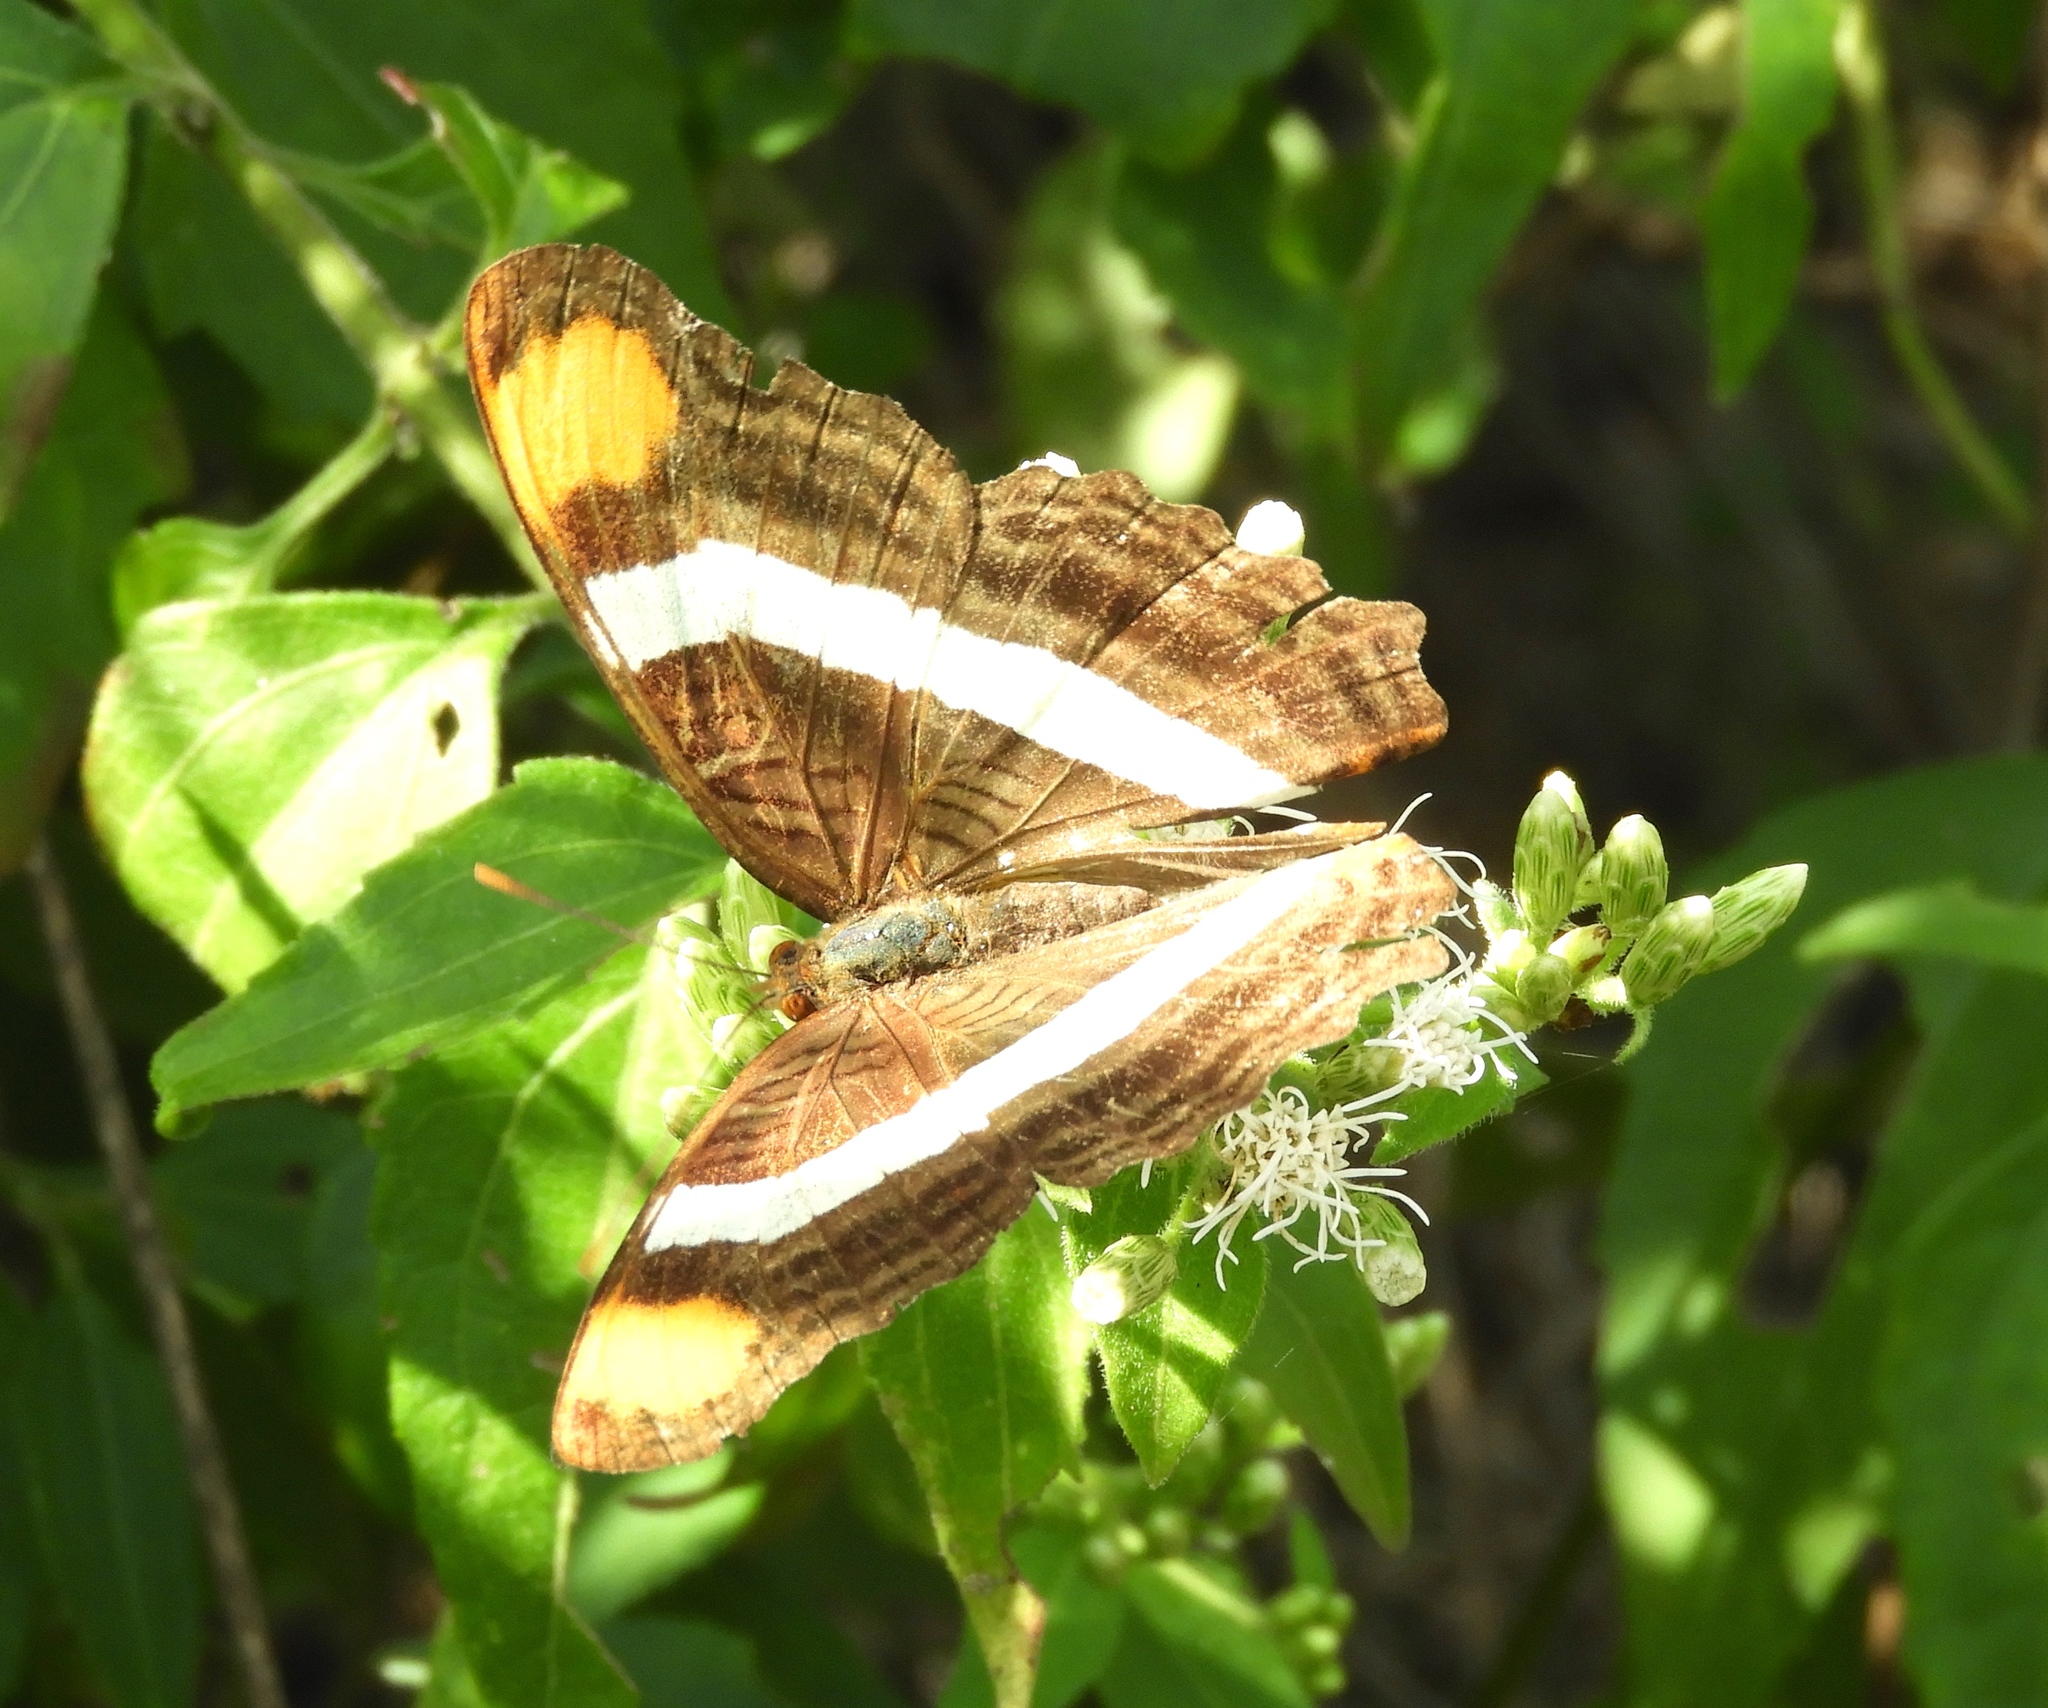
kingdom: Animalia
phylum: Arthropoda
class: Insecta
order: Lepidoptera
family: Nymphalidae
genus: Limenitis
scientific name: Limenitis fessonia
